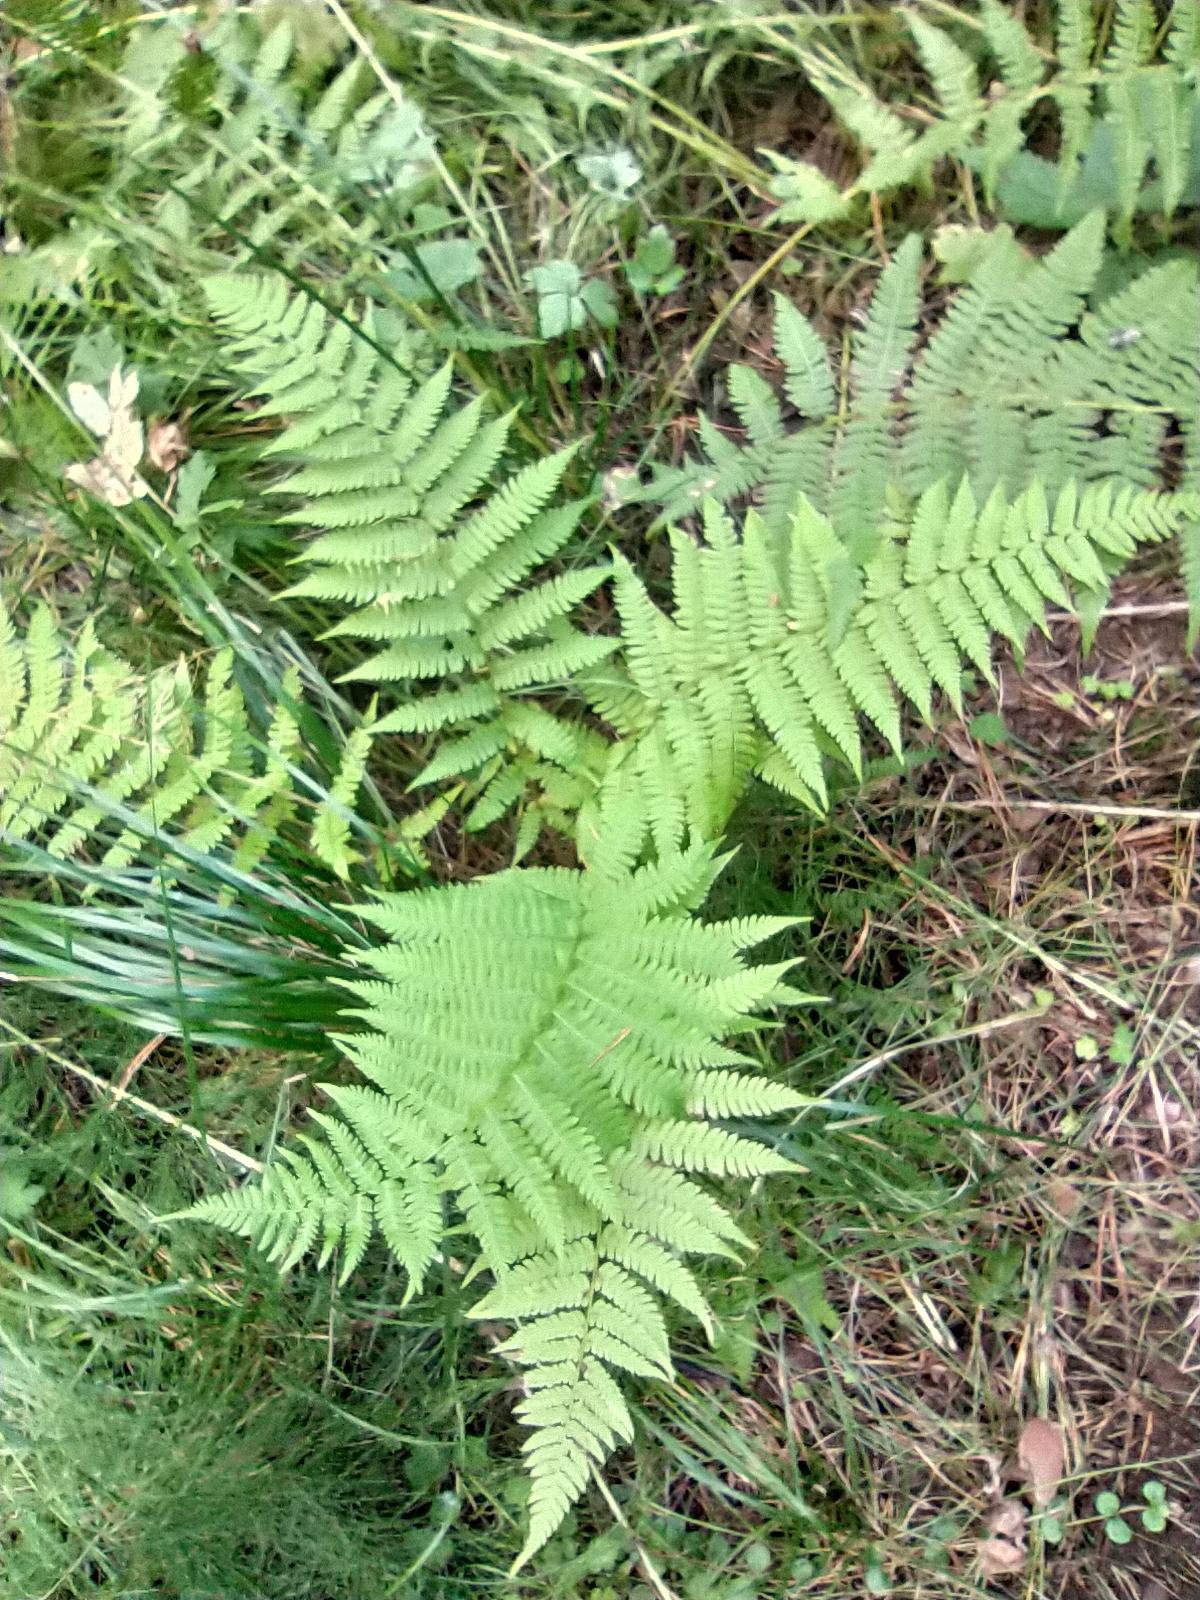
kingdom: Plantae
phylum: Tracheophyta
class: Polypodiopsida
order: Polypodiales
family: Dryopteridaceae
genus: Dryopteris
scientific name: Dryopteris filix-mas
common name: Male fern
